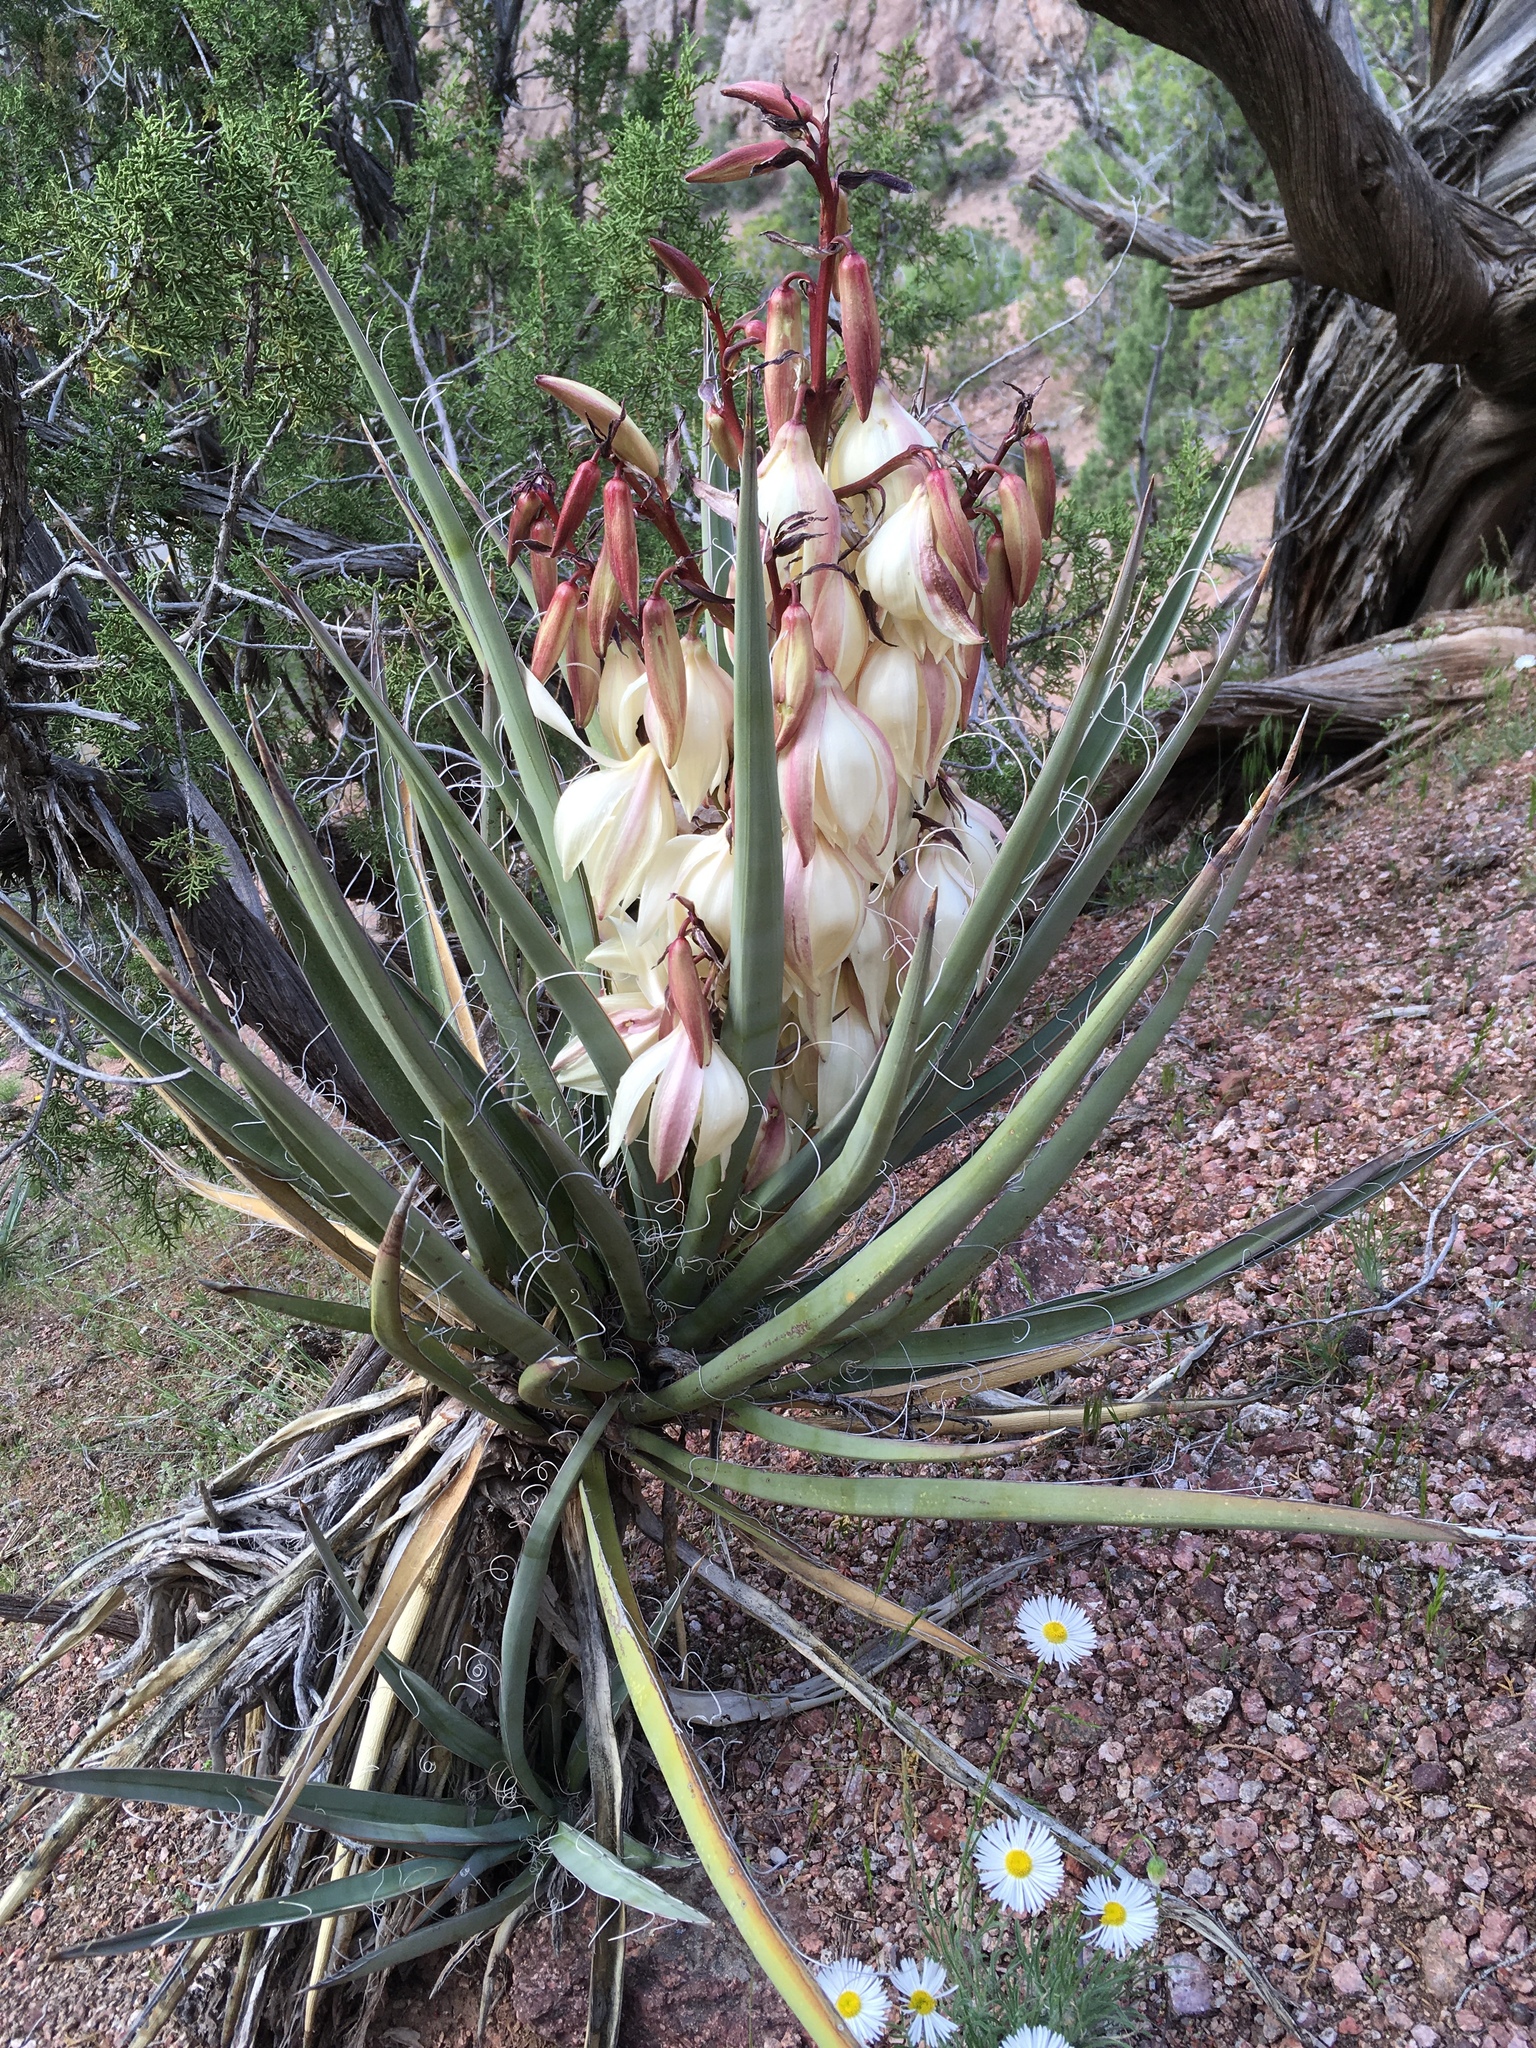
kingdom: Plantae
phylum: Tracheophyta
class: Liliopsida
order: Asparagales
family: Asparagaceae
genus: Yucca
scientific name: Yucca baccata
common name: Banana yucca
